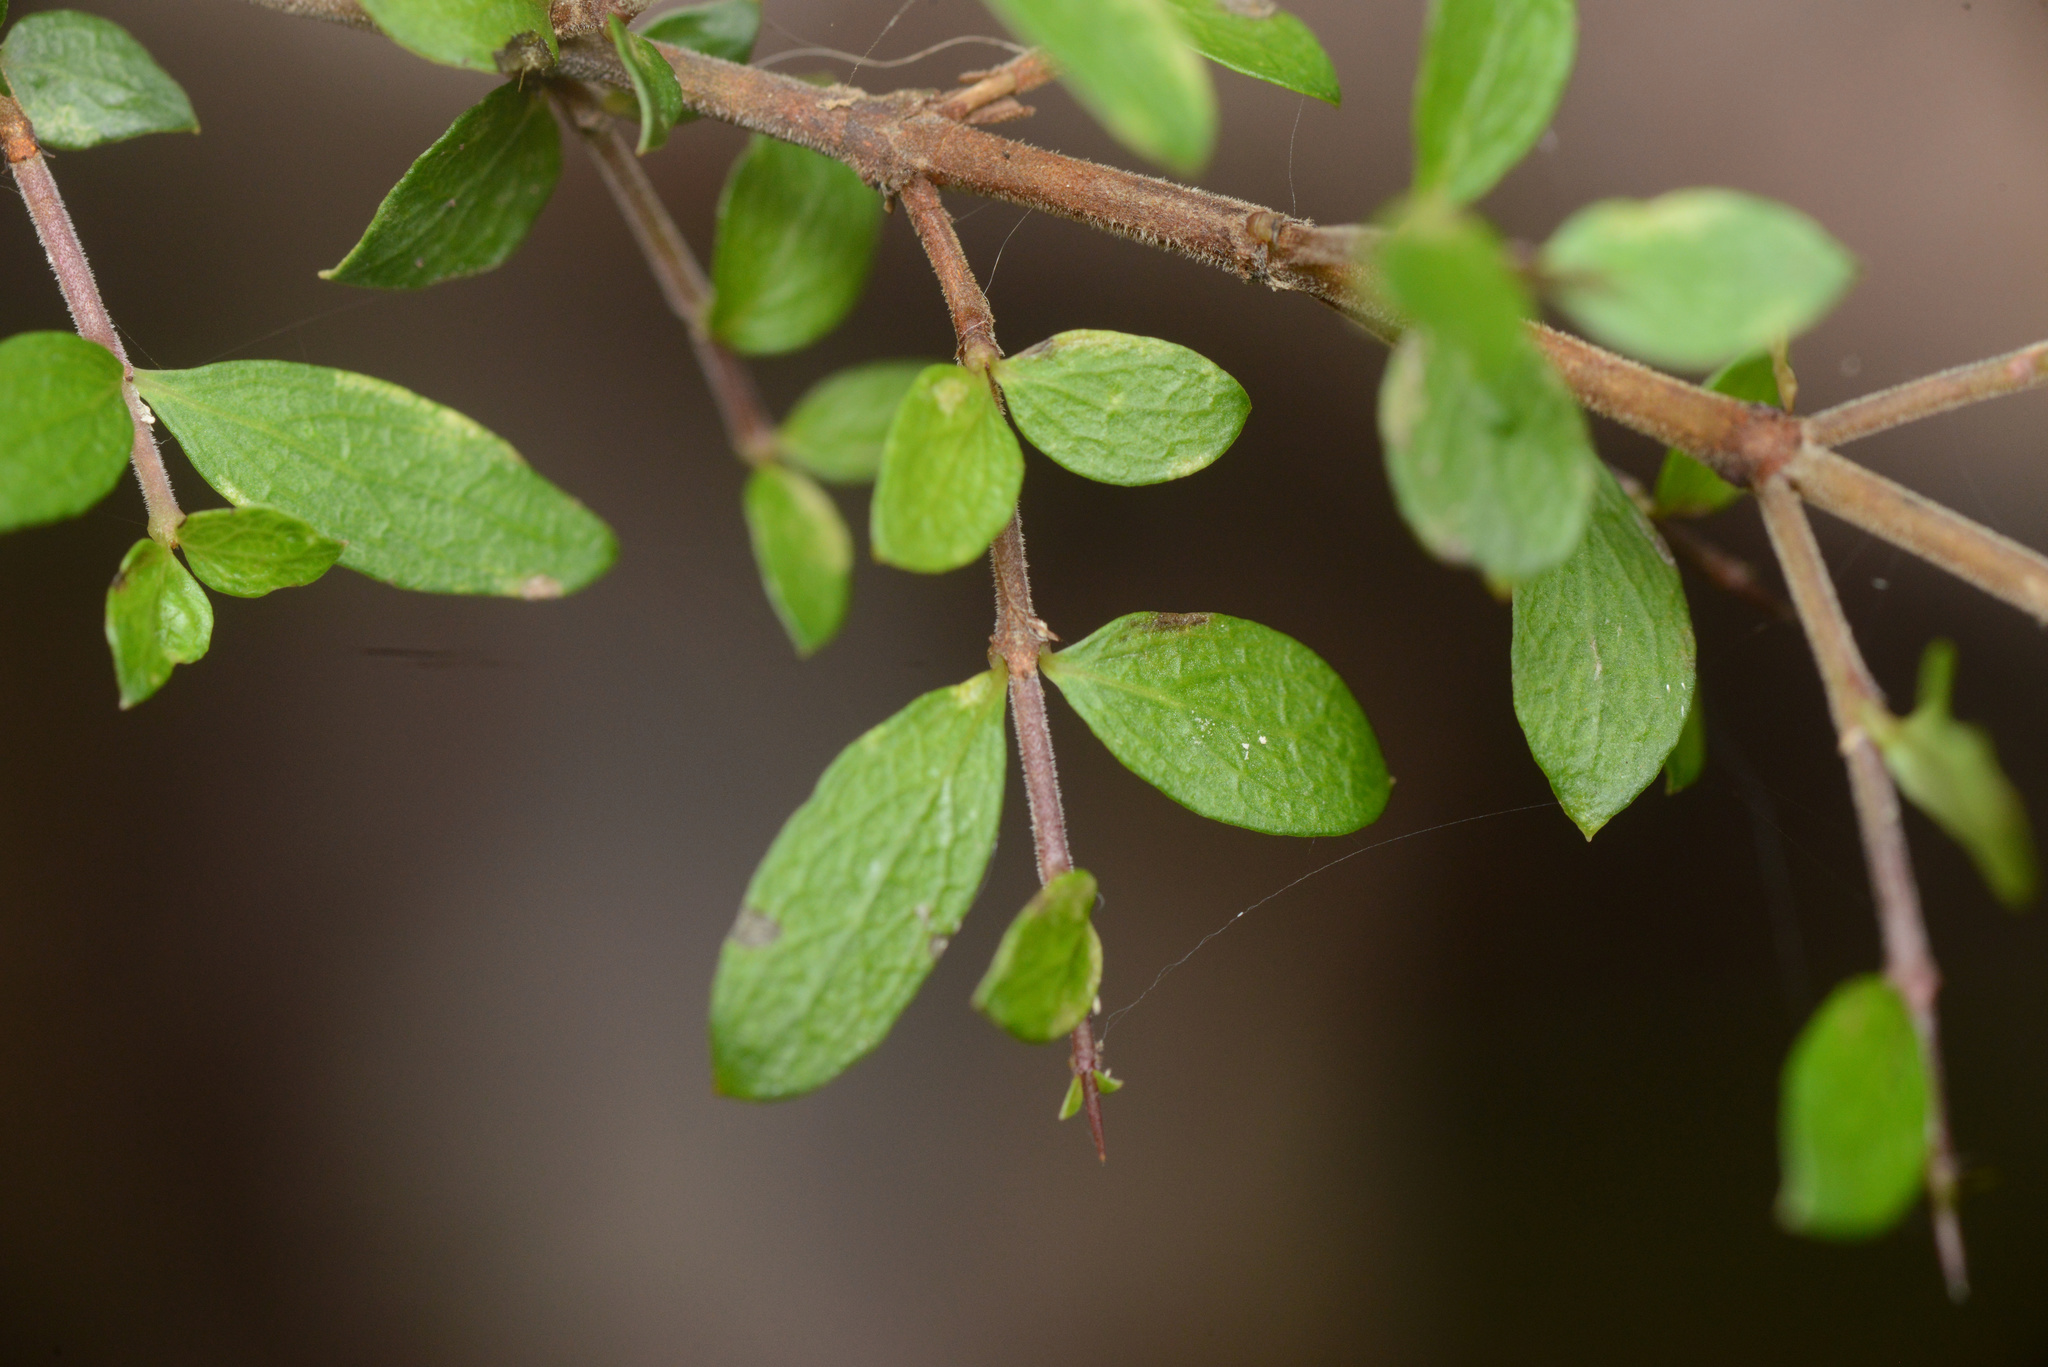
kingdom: Plantae
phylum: Tracheophyta
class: Magnoliopsida
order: Gentianales
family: Rubiaceae
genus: Coprosma
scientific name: Coprosma quadrifida
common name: Prickly currantbush
